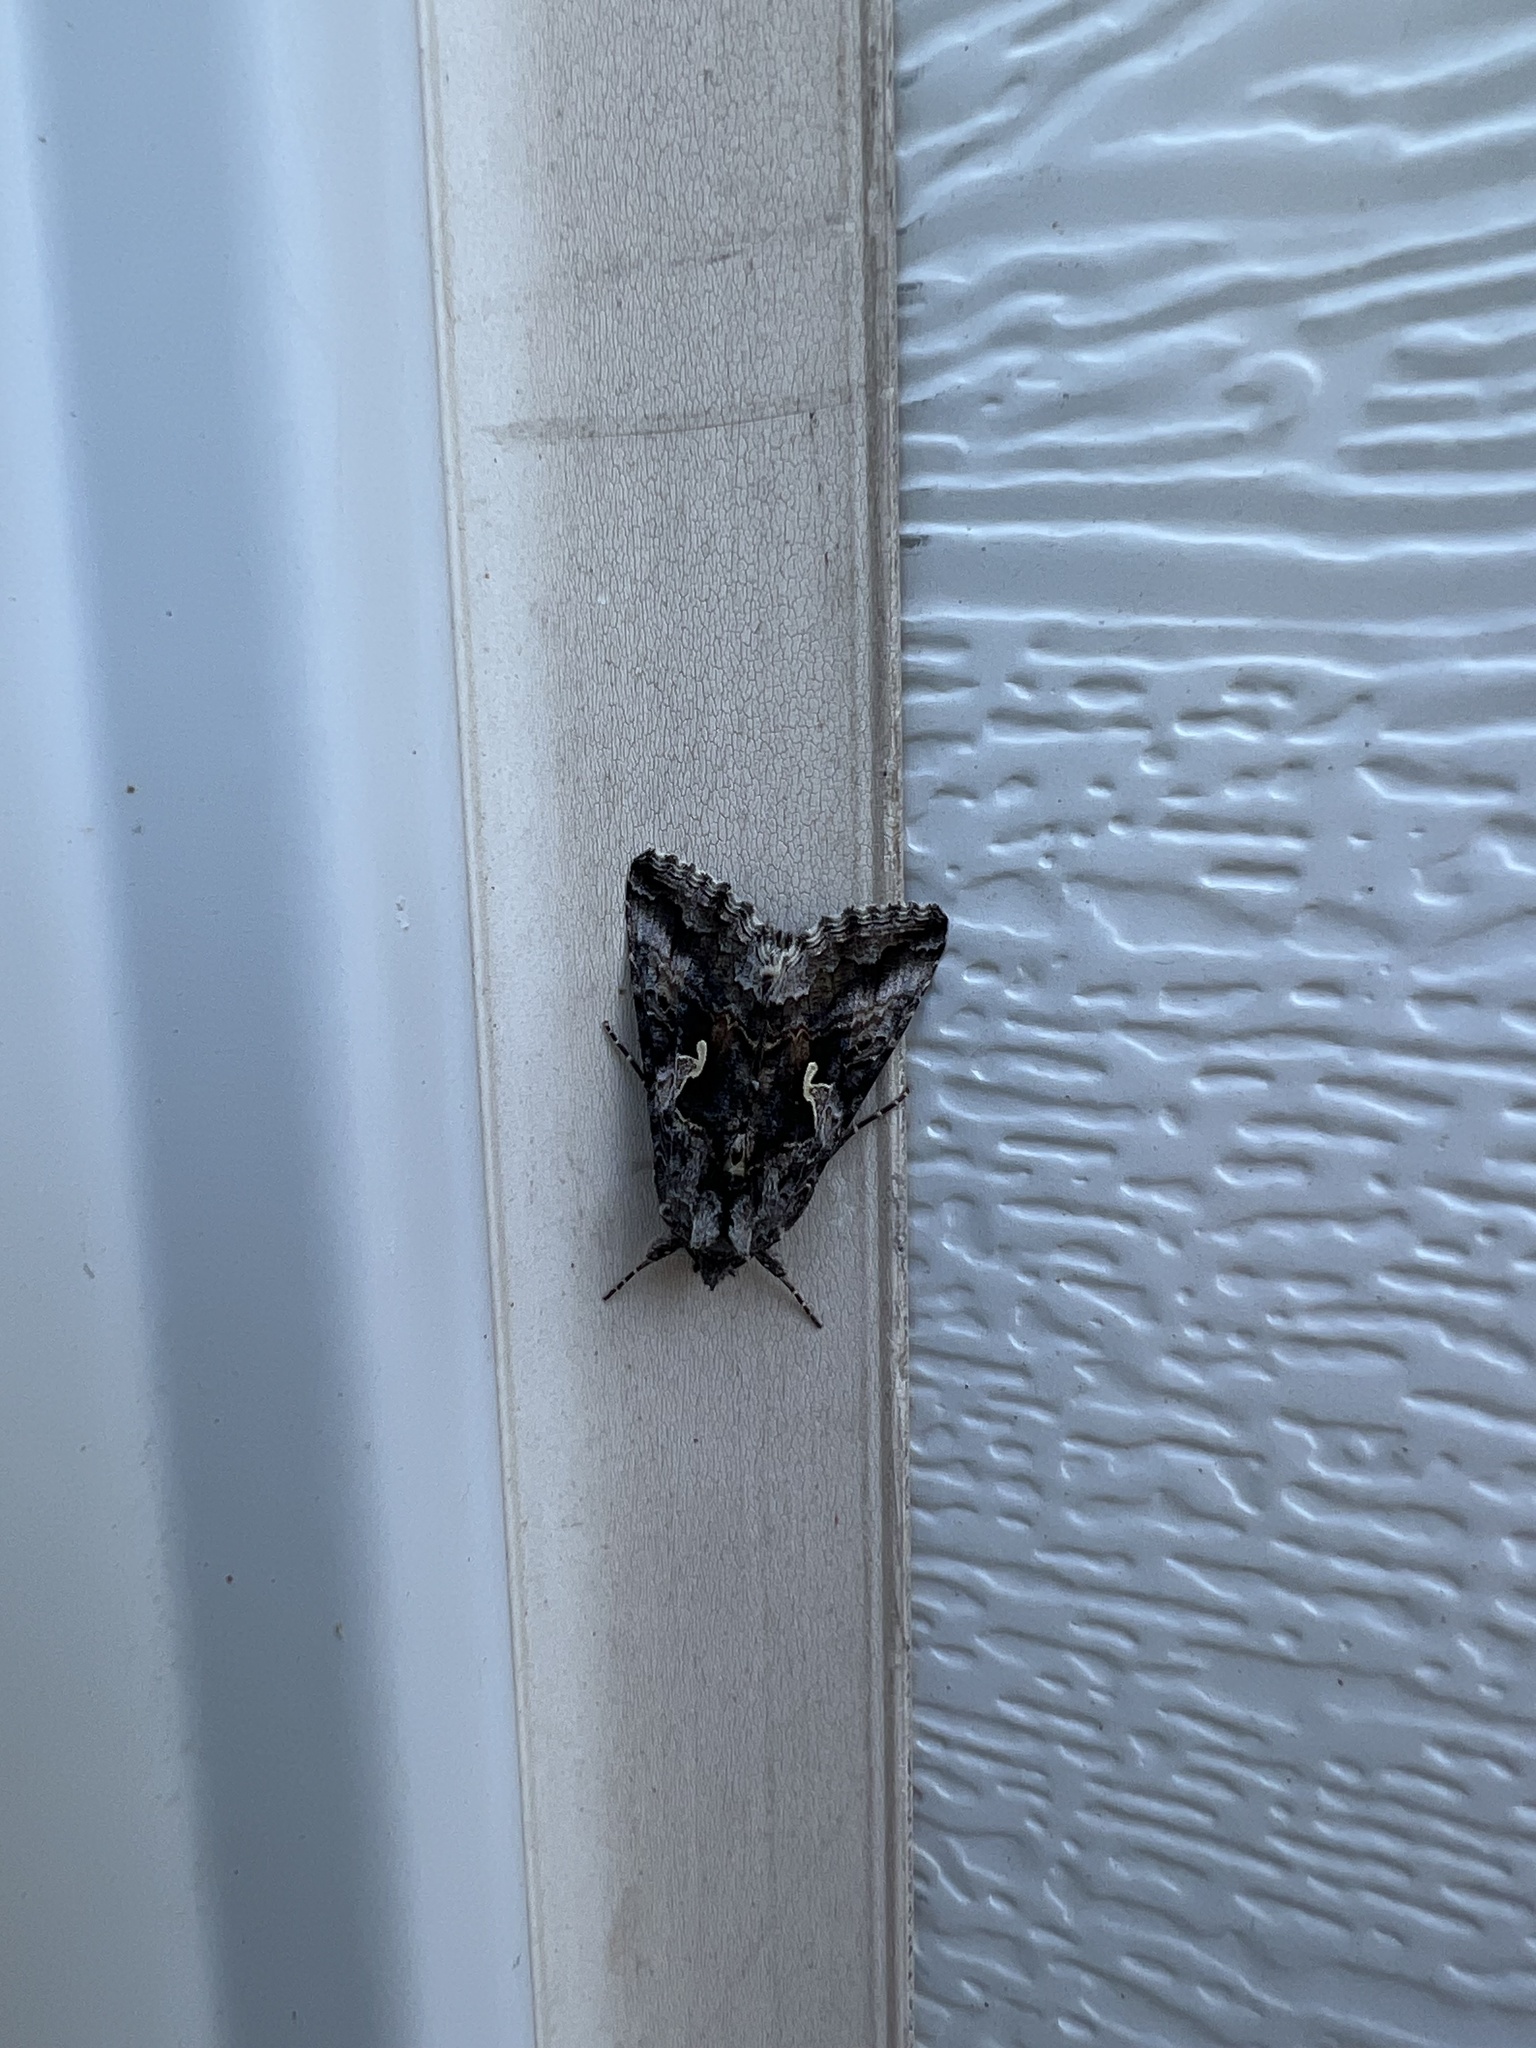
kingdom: Animalia
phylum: Arthropoda
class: Insecta
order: Lepidoptera
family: Noctuidae
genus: Autographa
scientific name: Autographa californica
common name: Alfalfa looper
